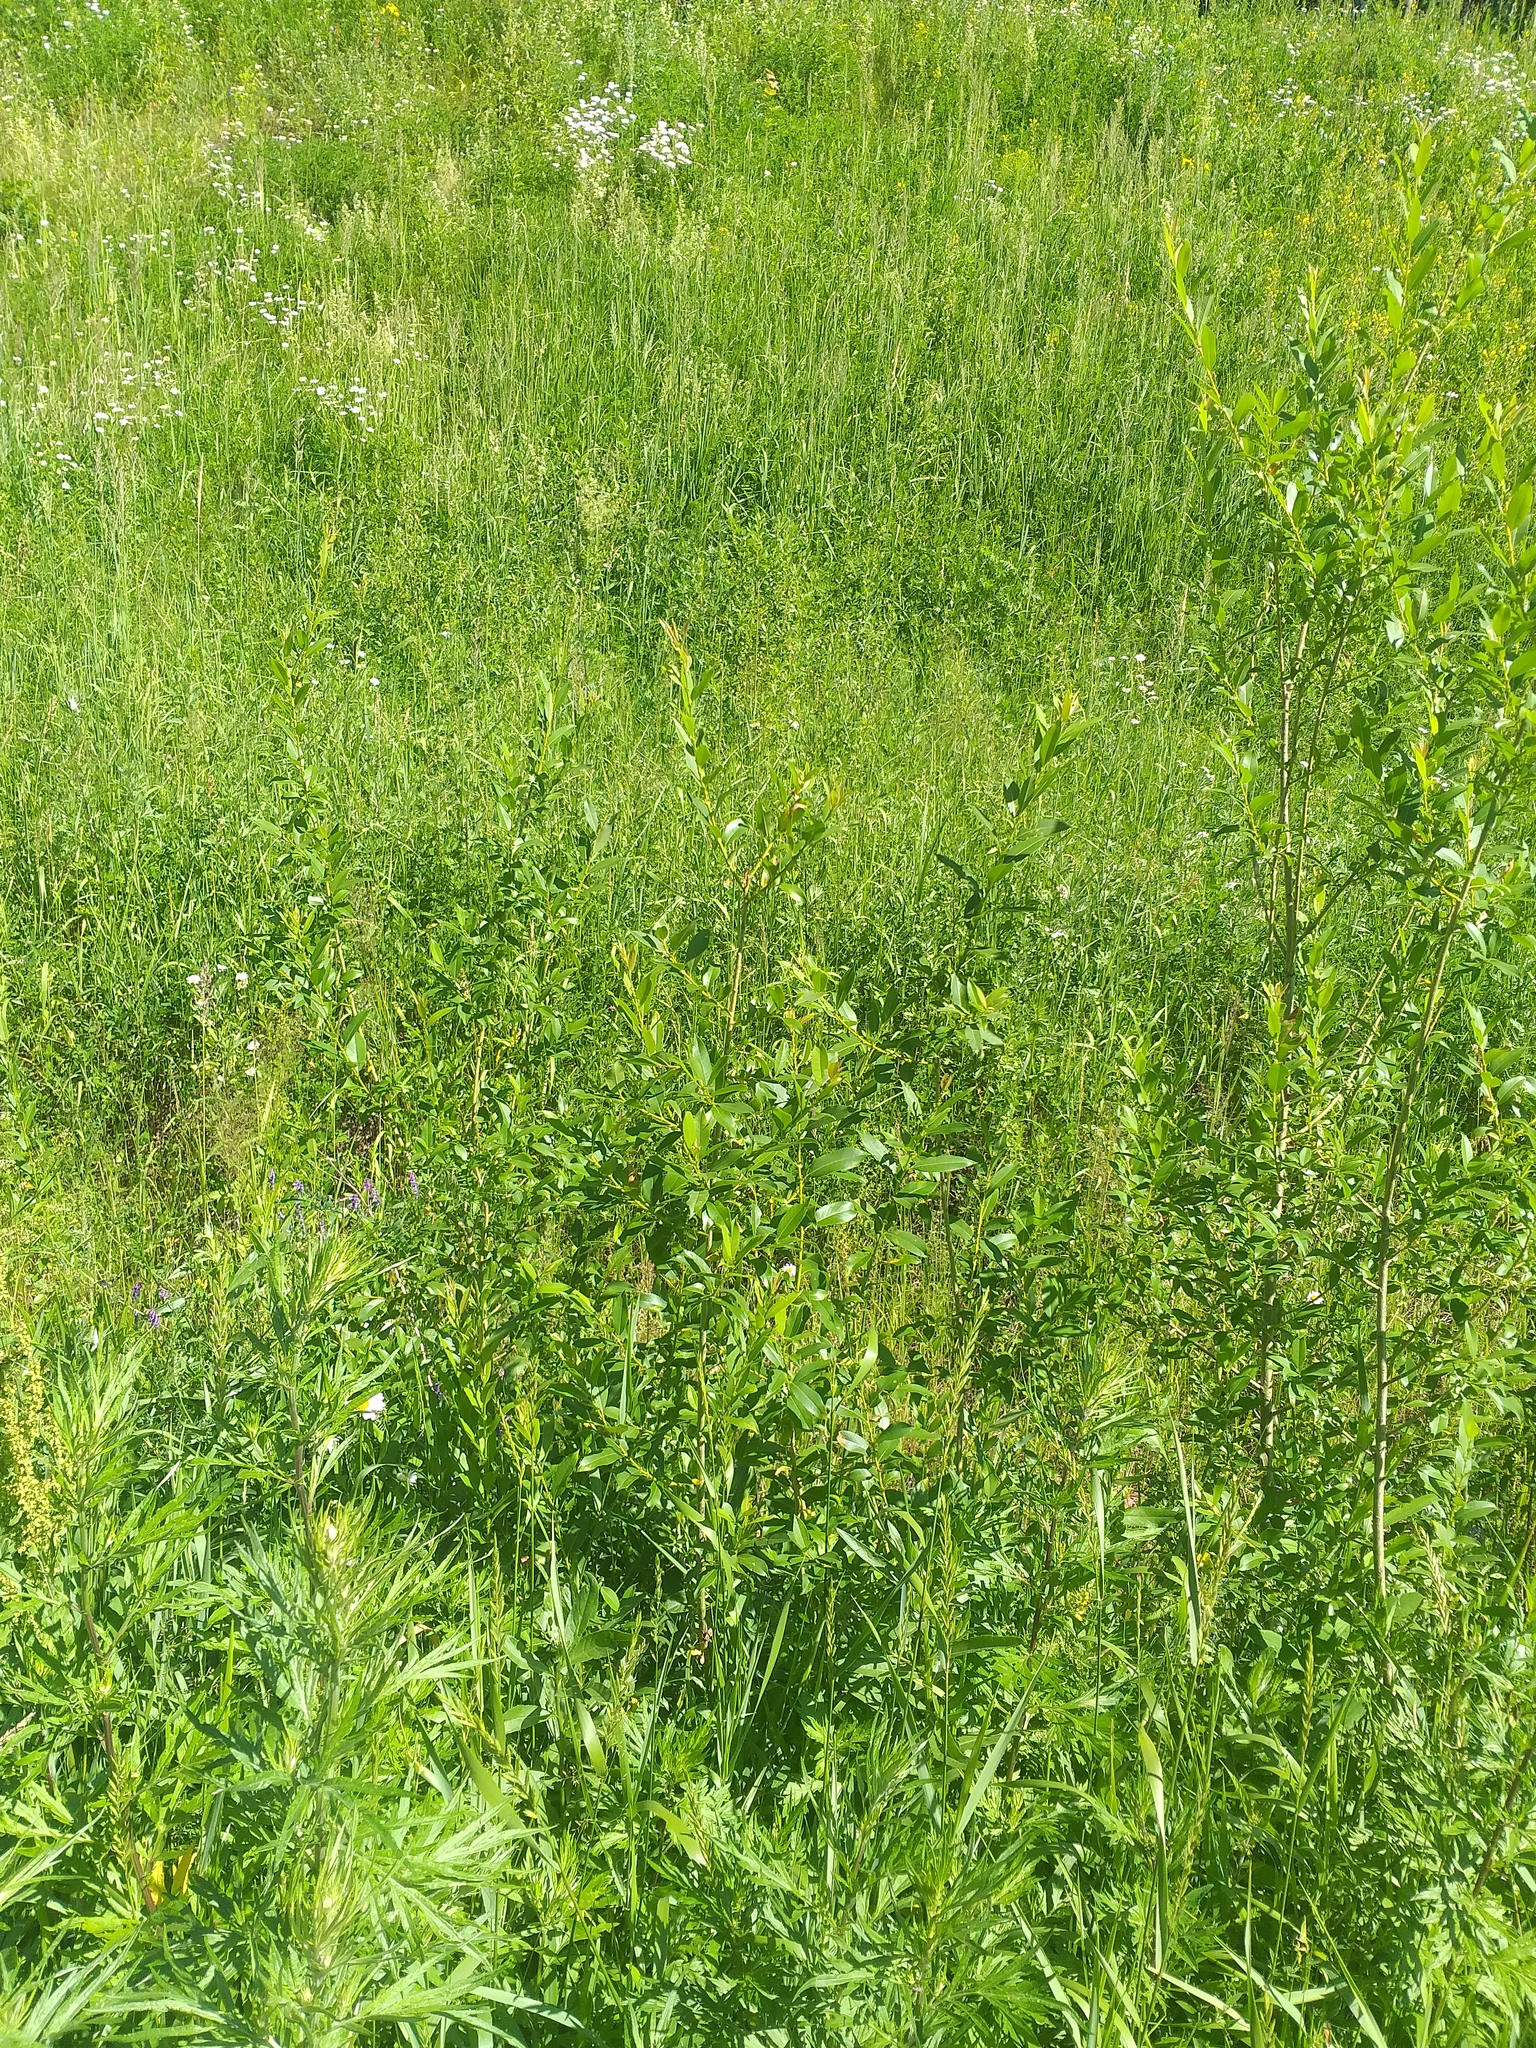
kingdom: Plantae
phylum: Tracheophyta
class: Magnoliopsida
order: Malpighiales
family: Salicaceae
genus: Salix
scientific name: Salix triandra
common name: Almond willow
